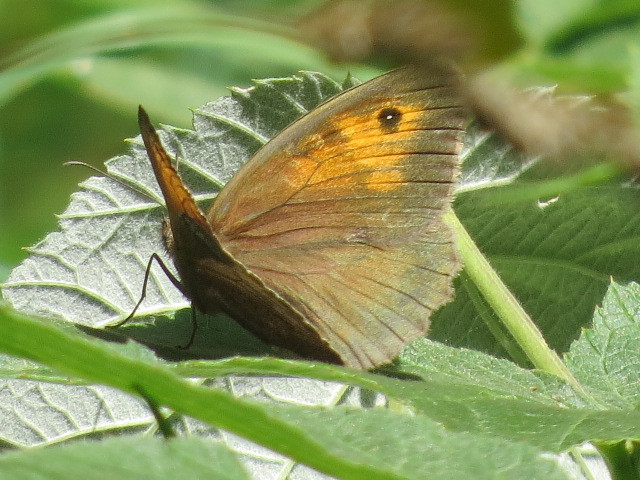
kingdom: Animalia
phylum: Arthropoda
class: Insecta
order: Lepidoptera
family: Nymphalidae
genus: Maniola
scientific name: Maniola jurtina
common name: Meadow brown
